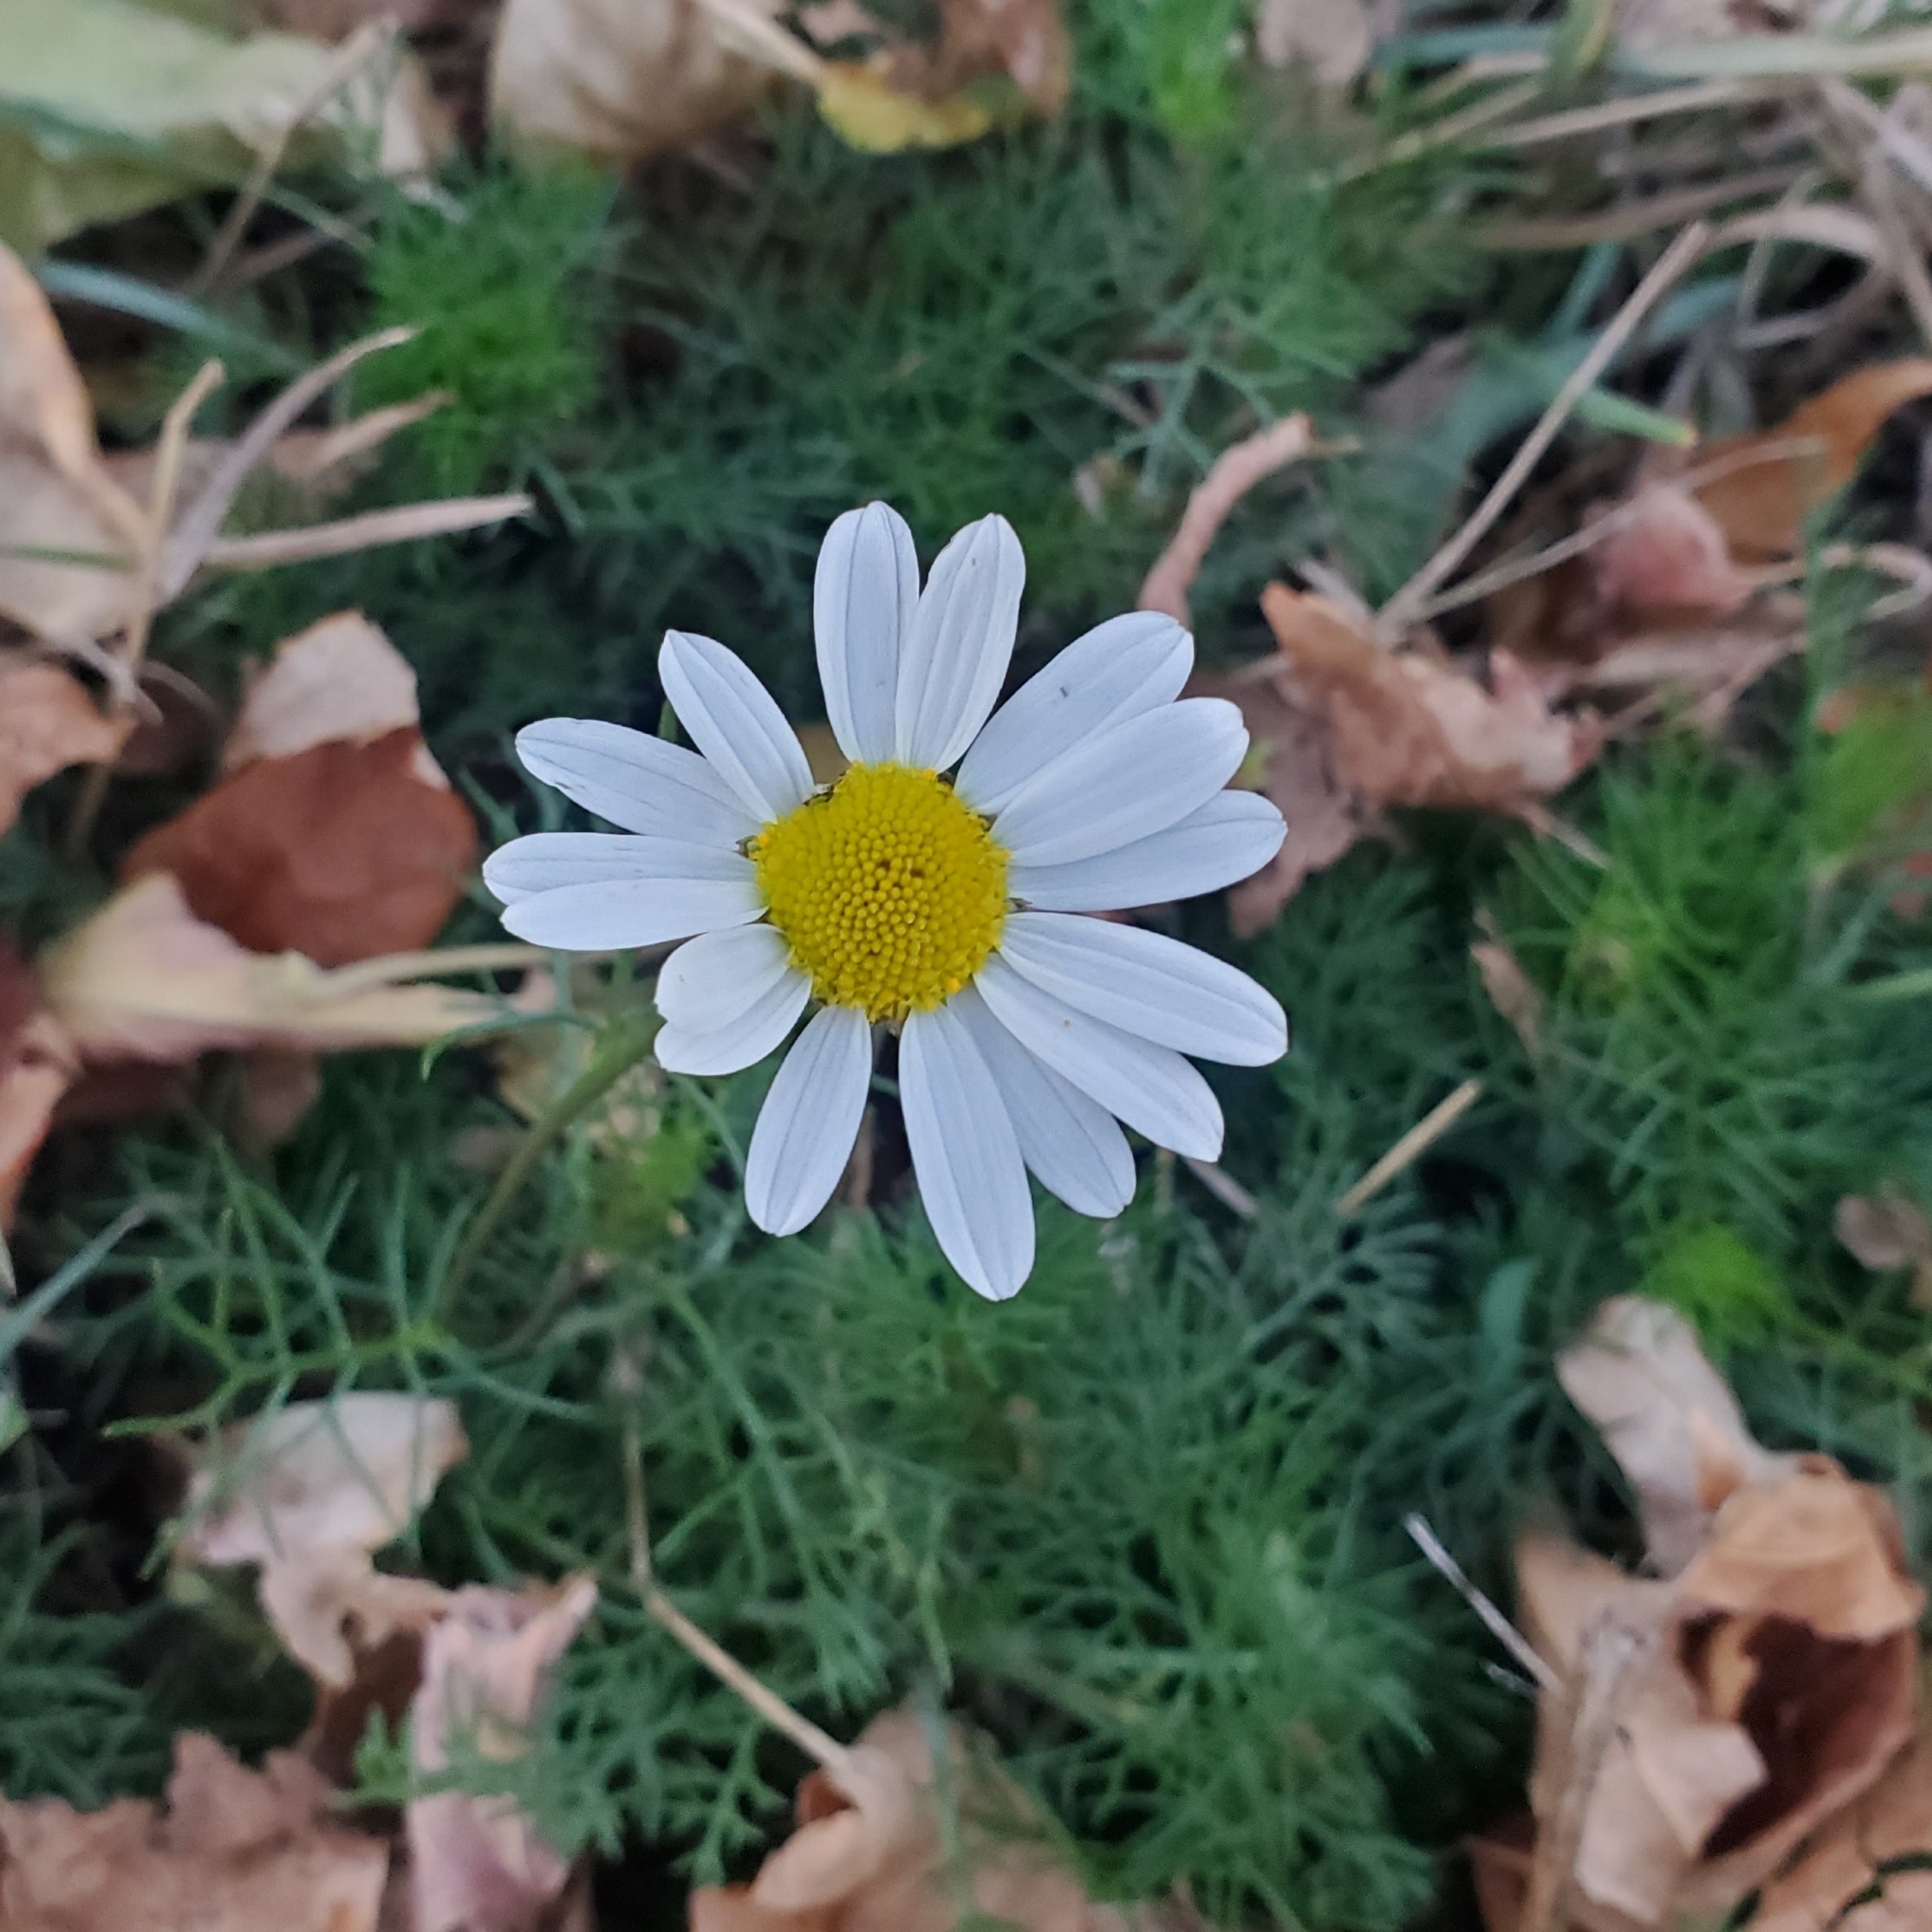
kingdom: Plantae
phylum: Tracheophyta
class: Magnoliopsida
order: Asterales
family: Asteraceae
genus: Tripleurospermum
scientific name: Tripleurospermum inodorum
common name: Scentless mayweed
